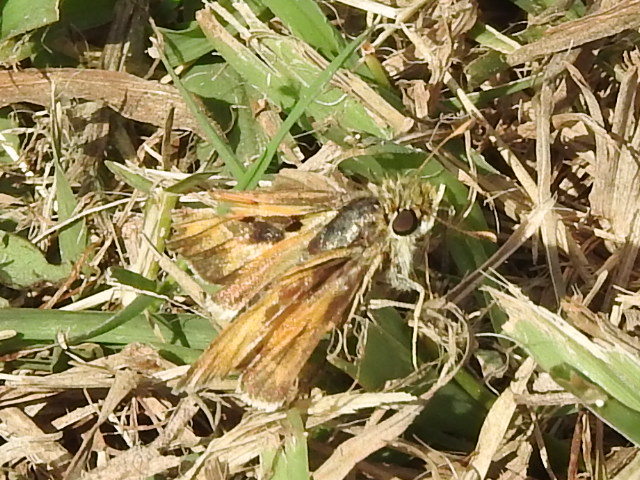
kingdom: Animalia
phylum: Arthropoda
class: Insecta
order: Lepidoptera
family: Hesperiidae
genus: Hylephila
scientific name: Hylephila phyleus
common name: Fiery skipper
